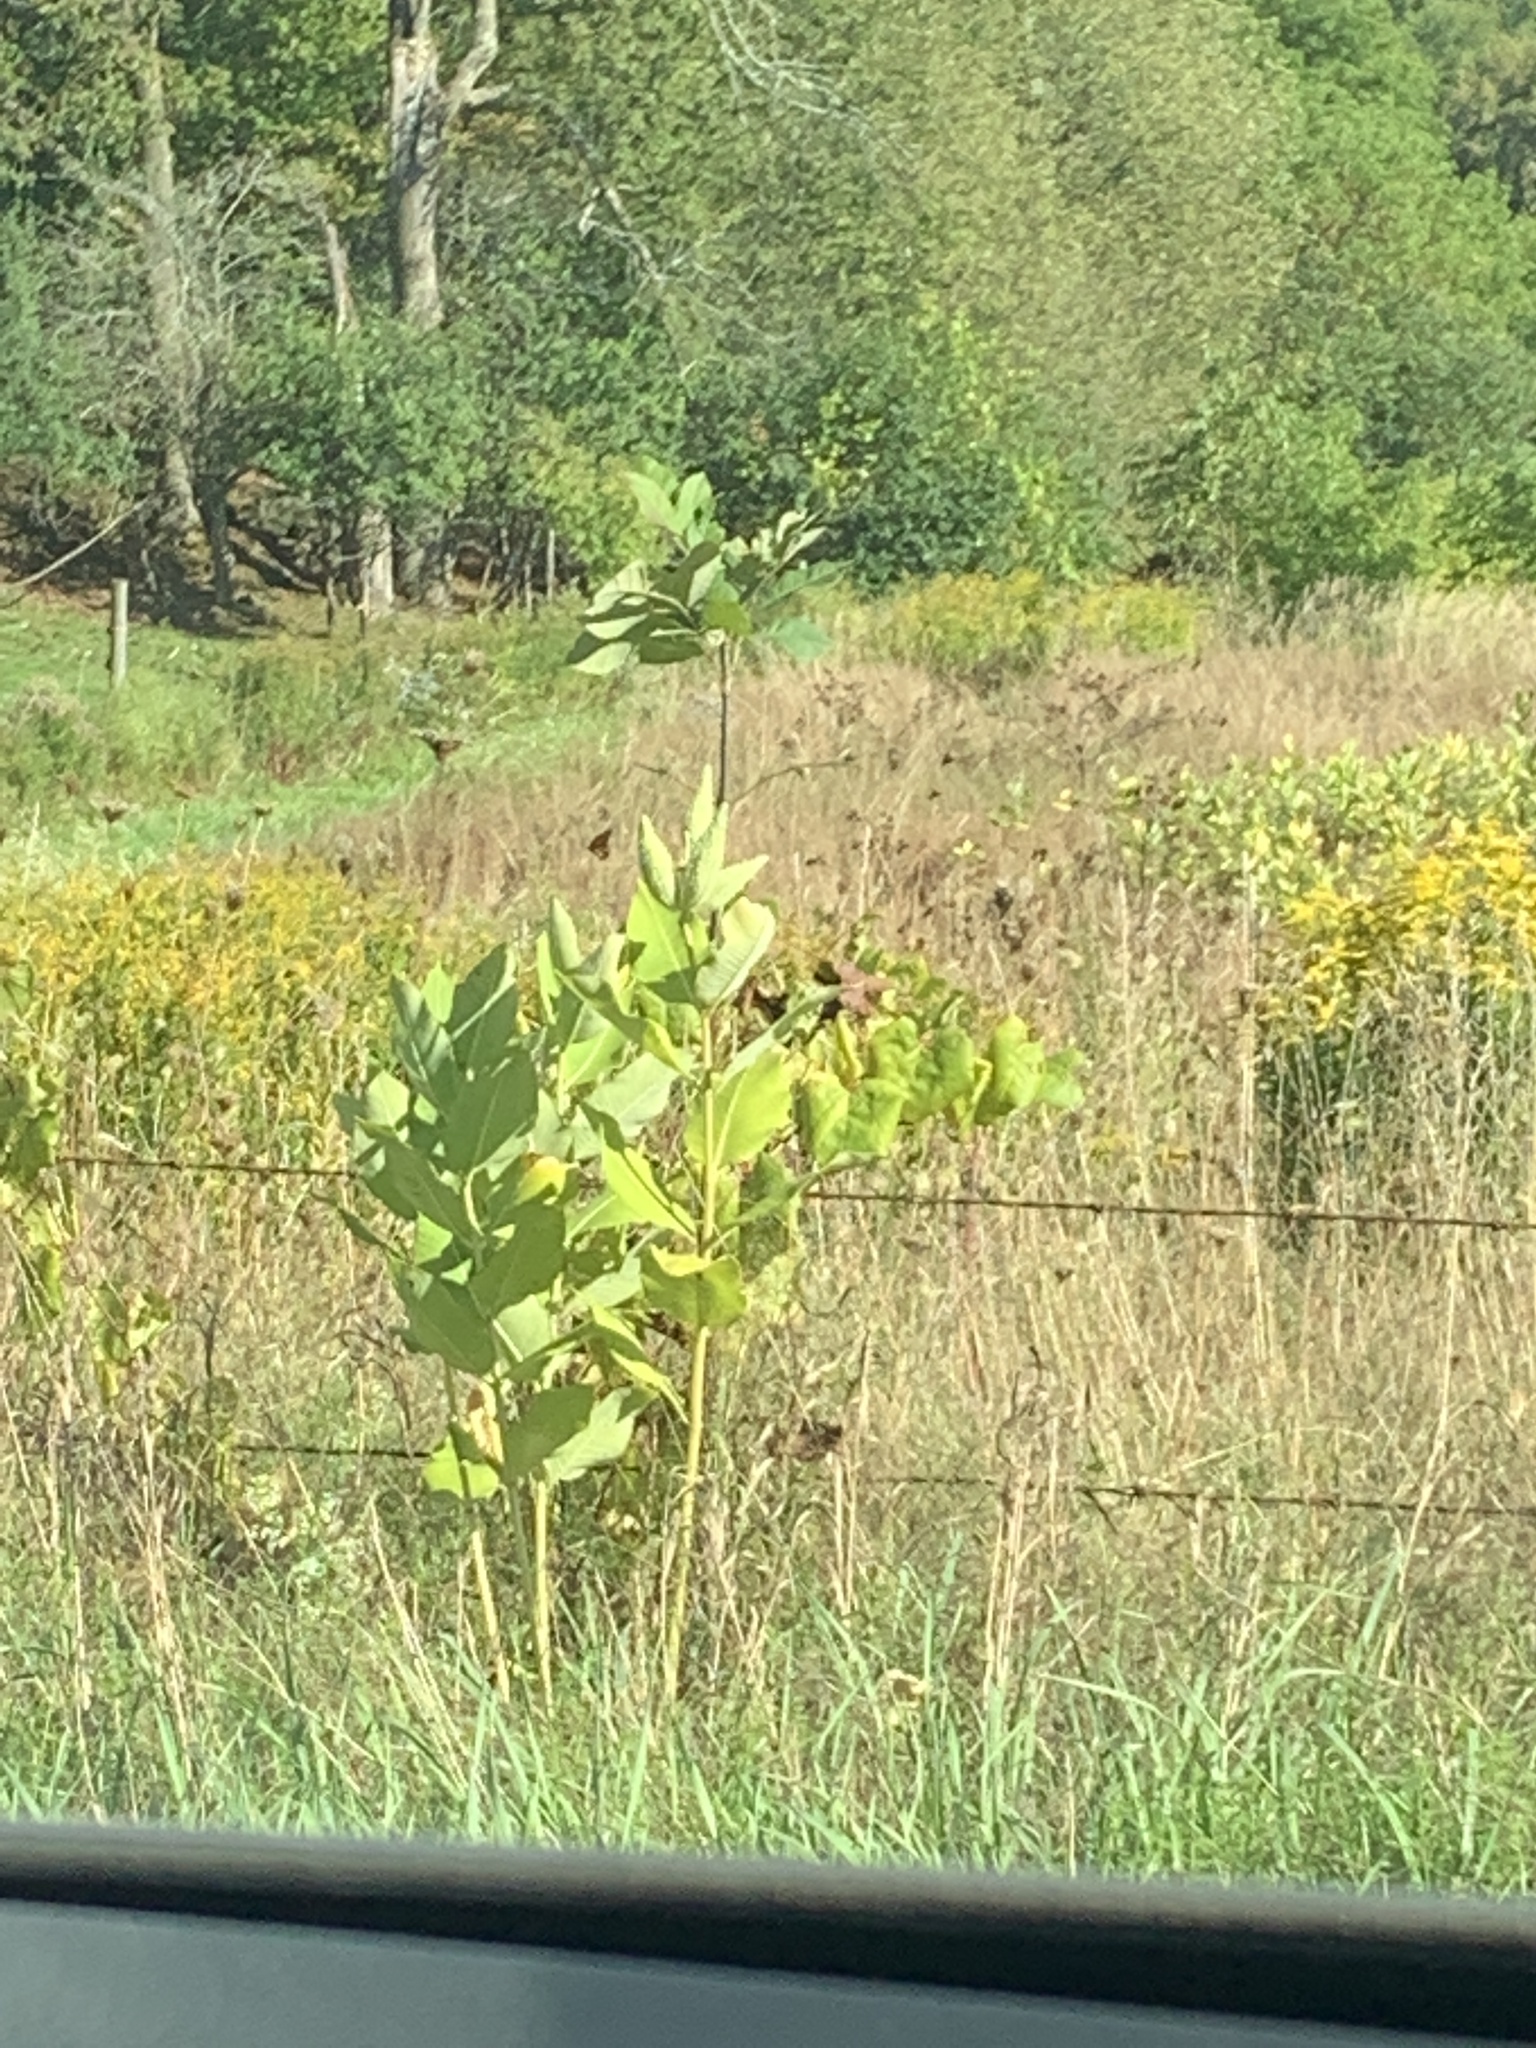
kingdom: Plantae
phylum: Tracheophyta
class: Magnoliopsida
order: Gentianales
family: Apocynaceae
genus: Asclepias
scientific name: Asclepias syriaca
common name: Common milkweed
